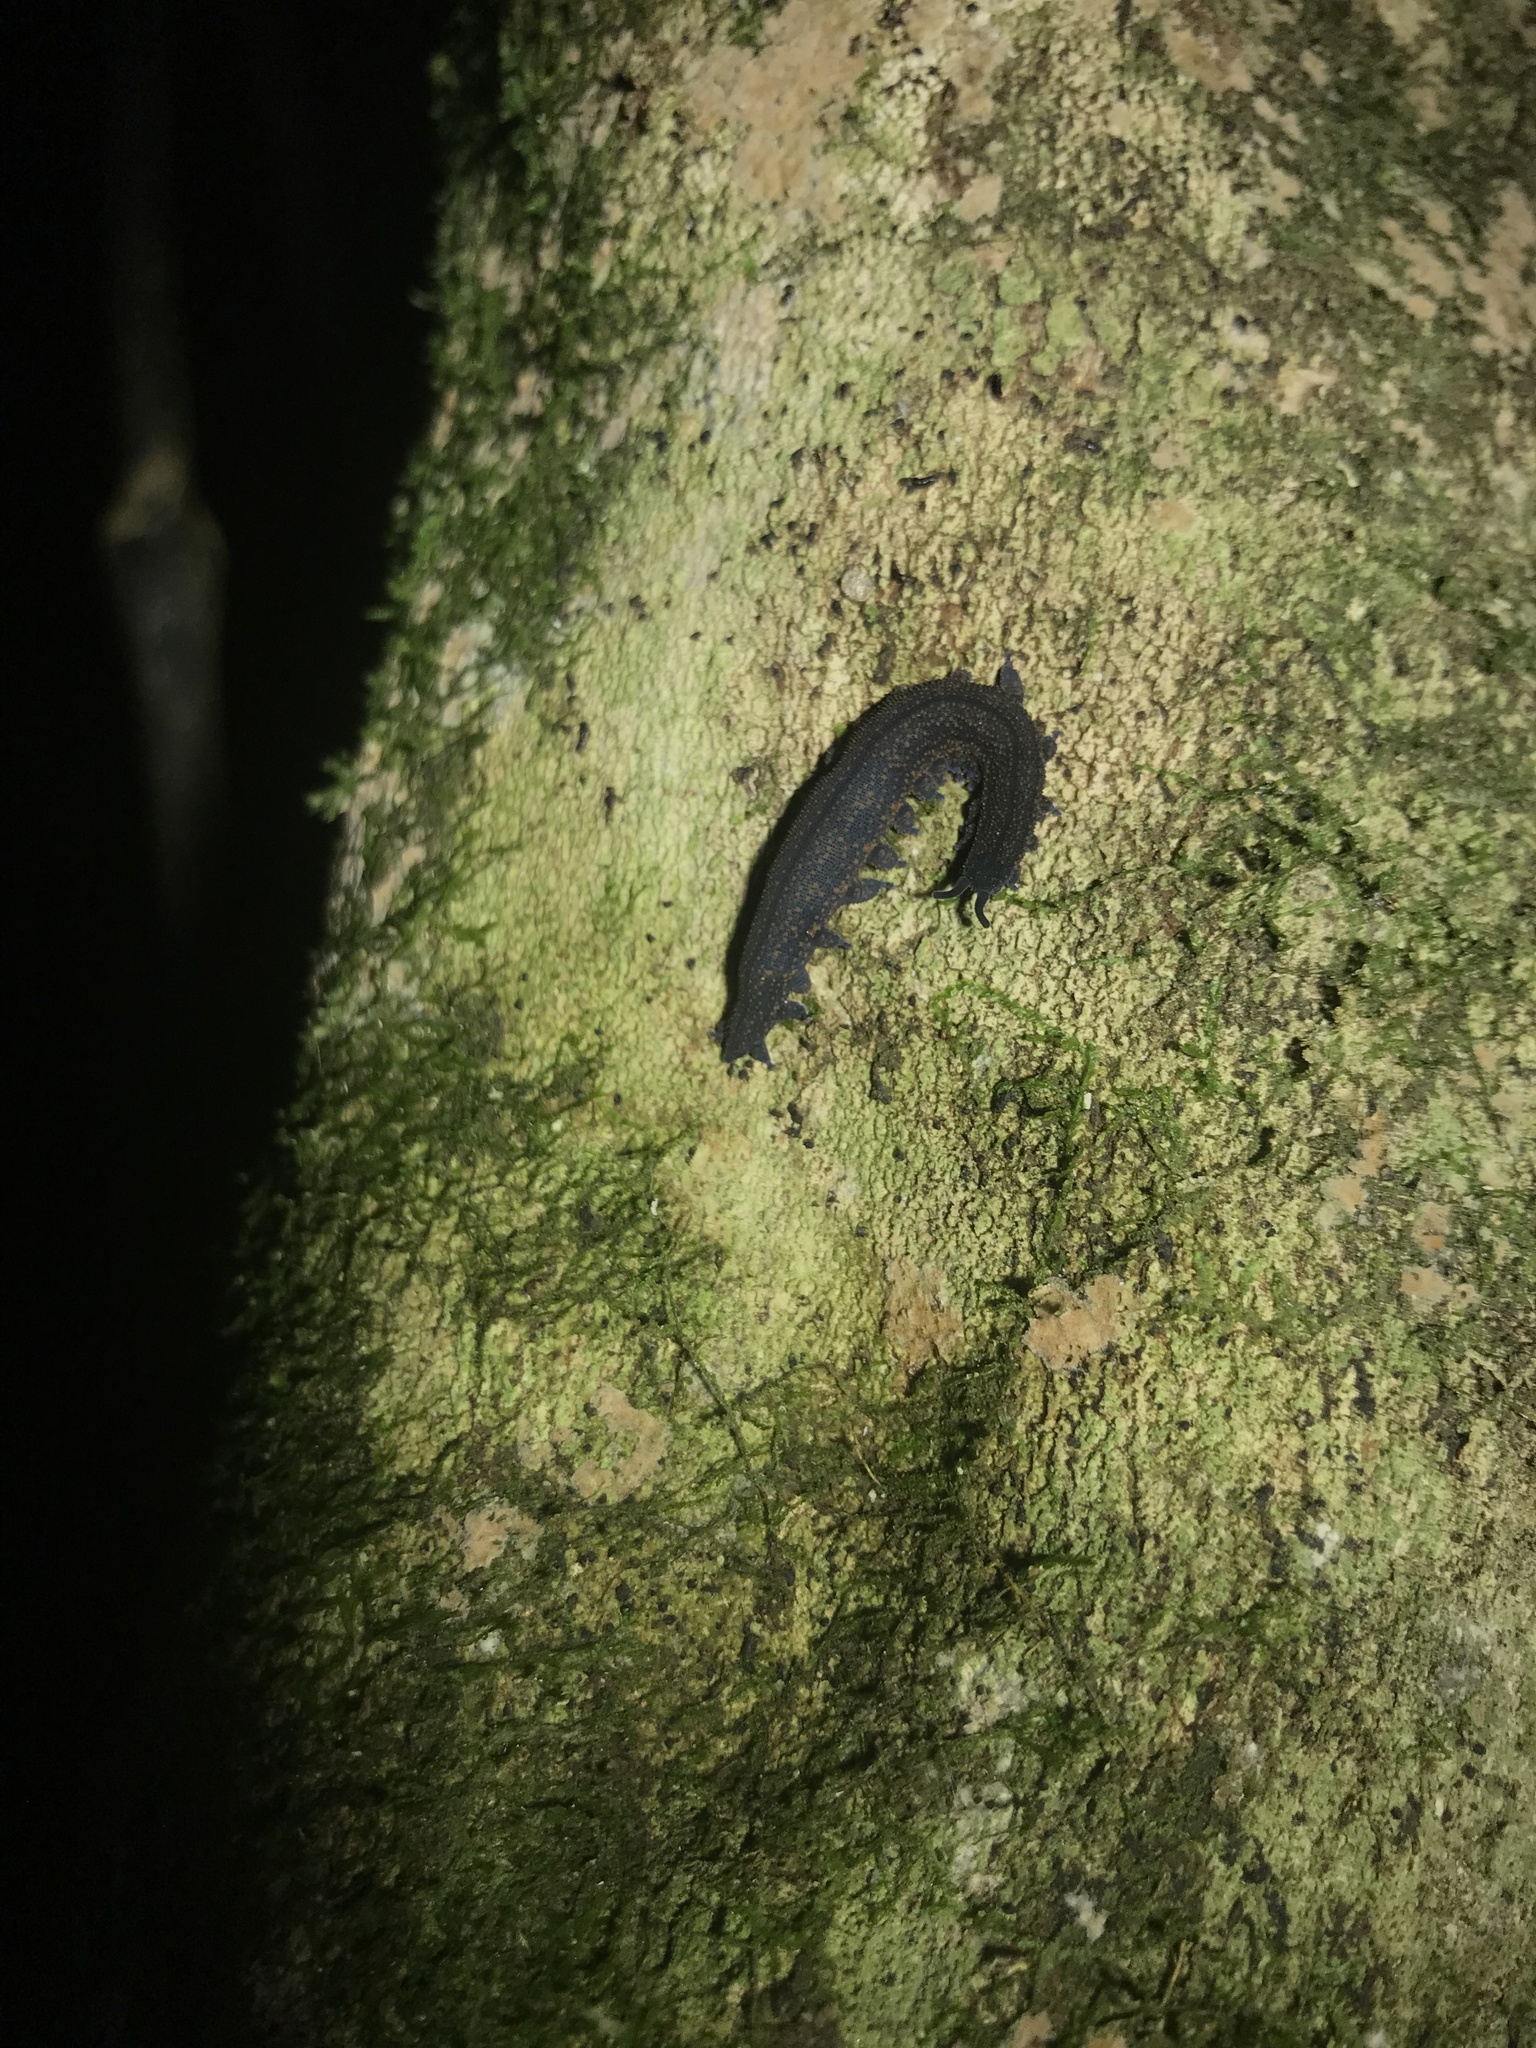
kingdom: Animalia
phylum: Onychophora
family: Peripatopsidae
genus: Peripatoides
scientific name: Peripatoides novaezealandiae
